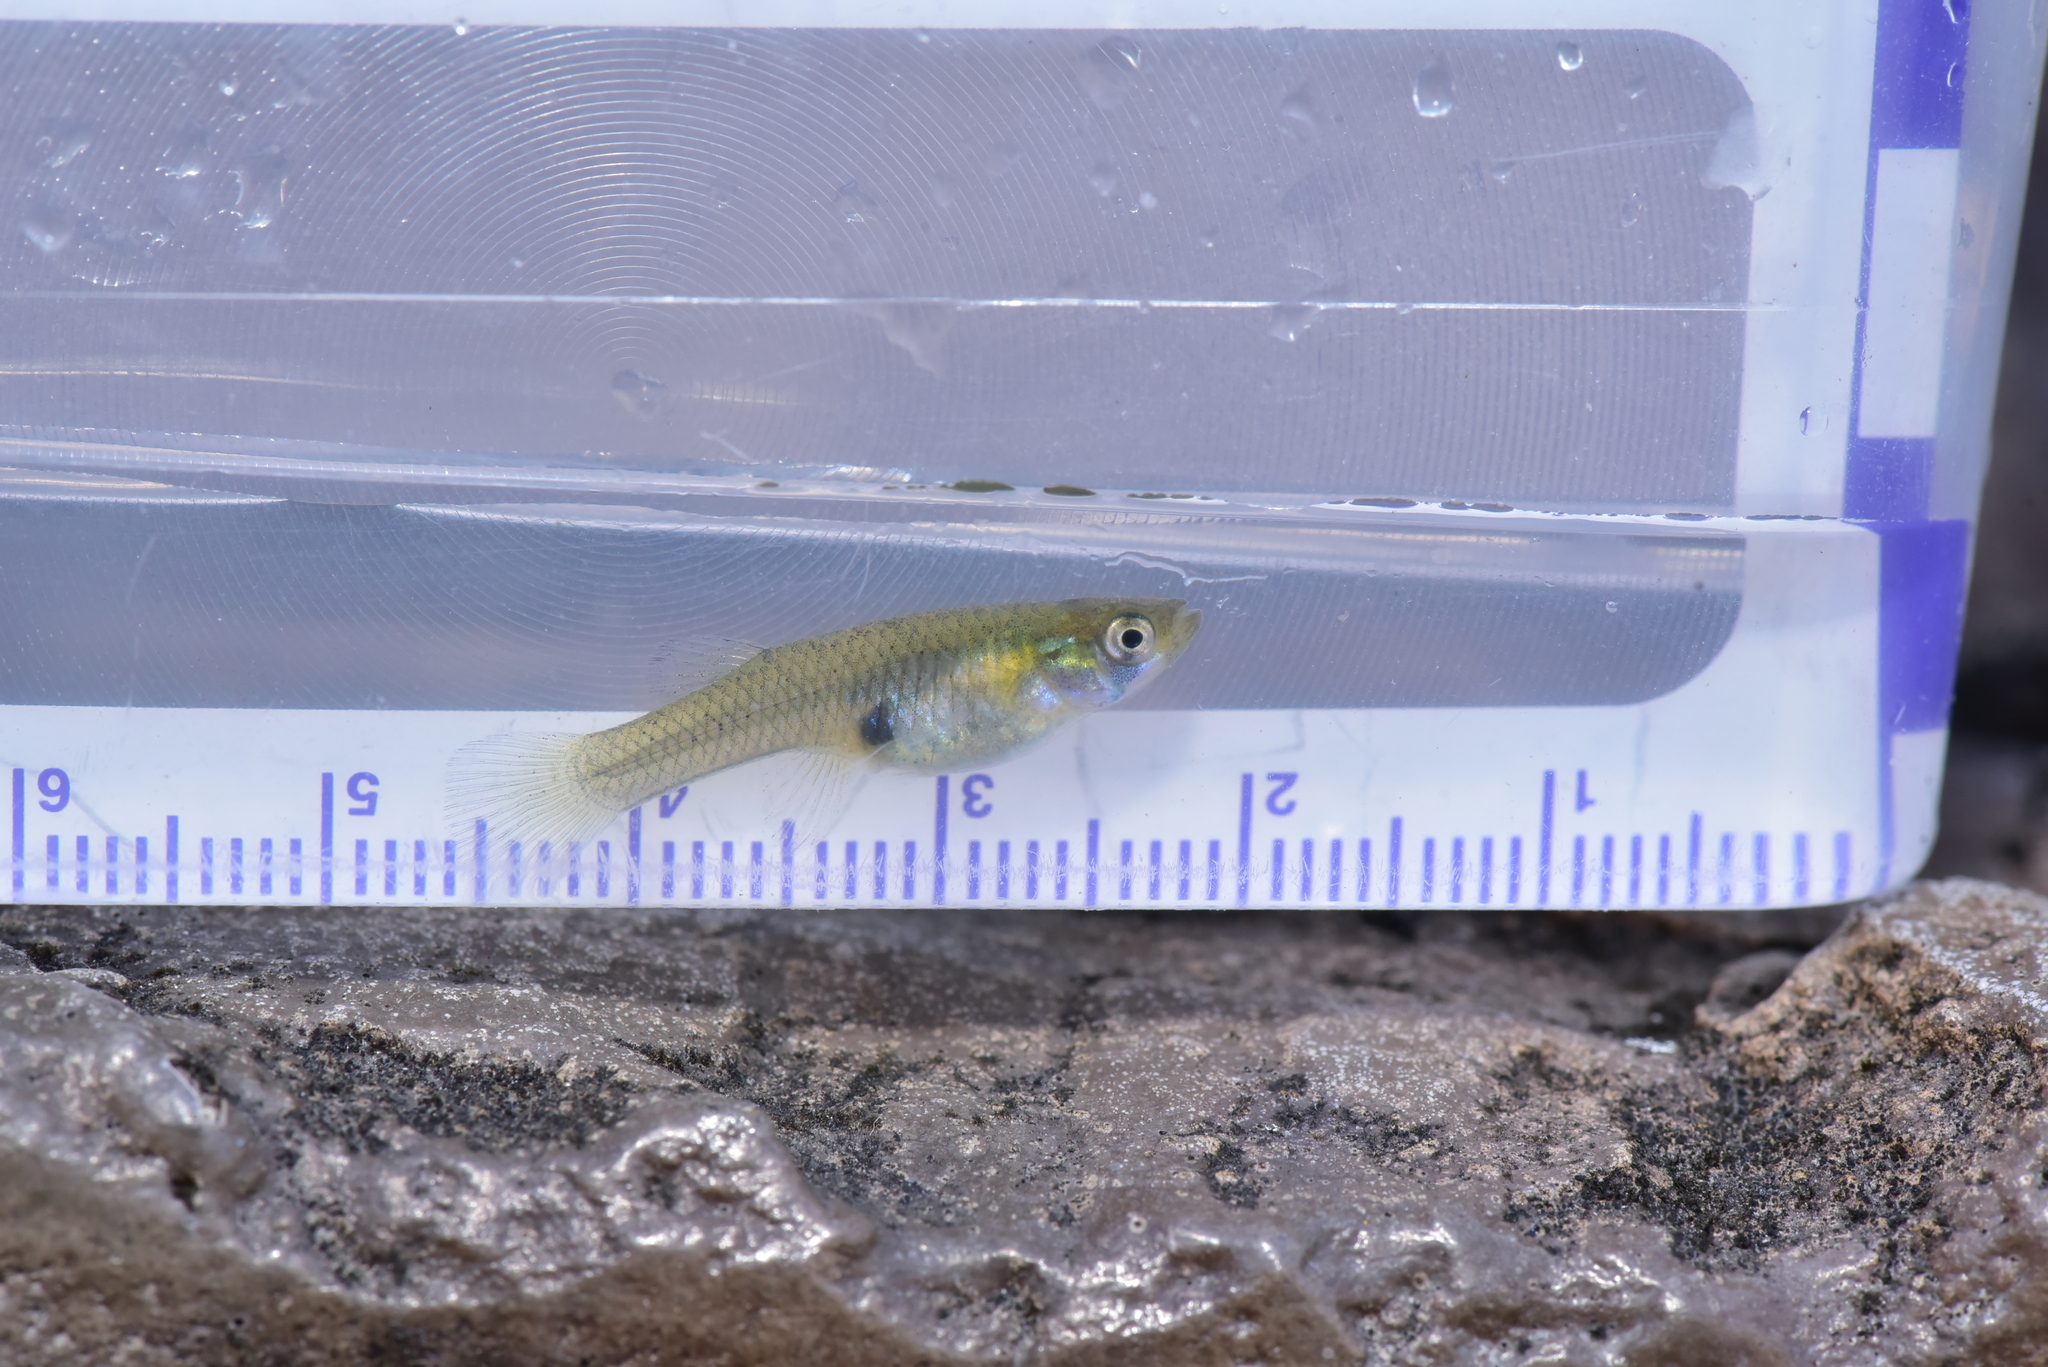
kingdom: Animalia
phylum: Chordata
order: Cyprinodontiformes
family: Poeciliidae
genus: Gambusia
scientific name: Gambusia affinis
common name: Mosquitofish
